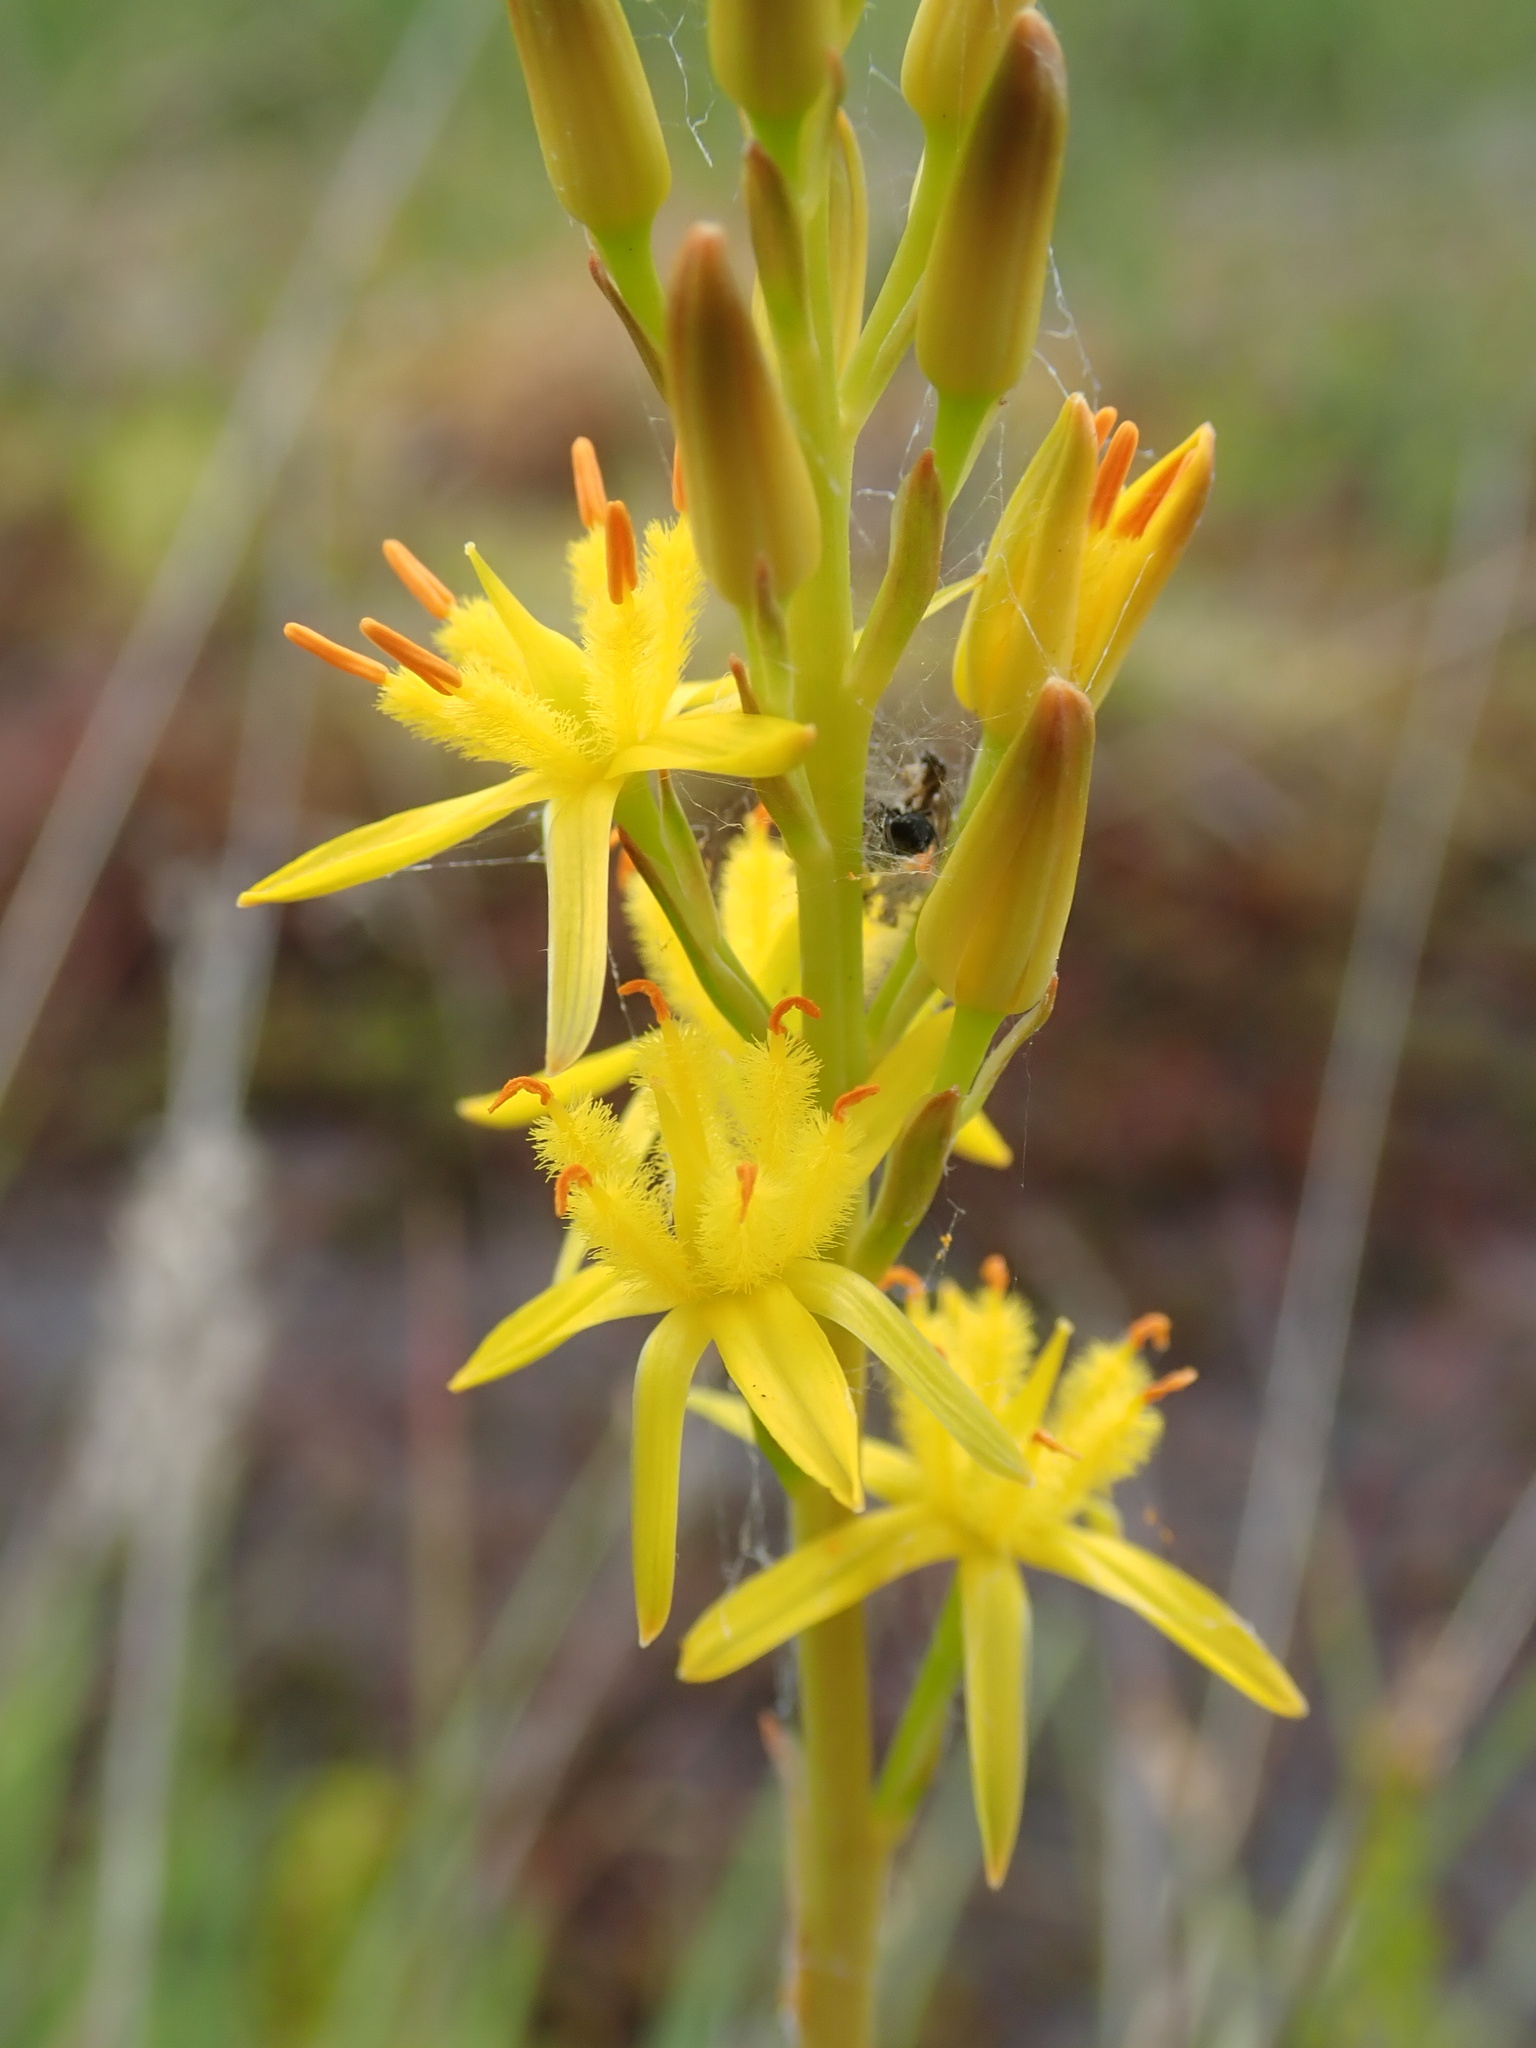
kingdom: Plantae
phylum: Tracheophyta
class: Liliopsida
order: Dioscoreales
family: Nartheciaceae
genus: Narthecium
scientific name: Narthecium ossifragum
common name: Bog asphodel
